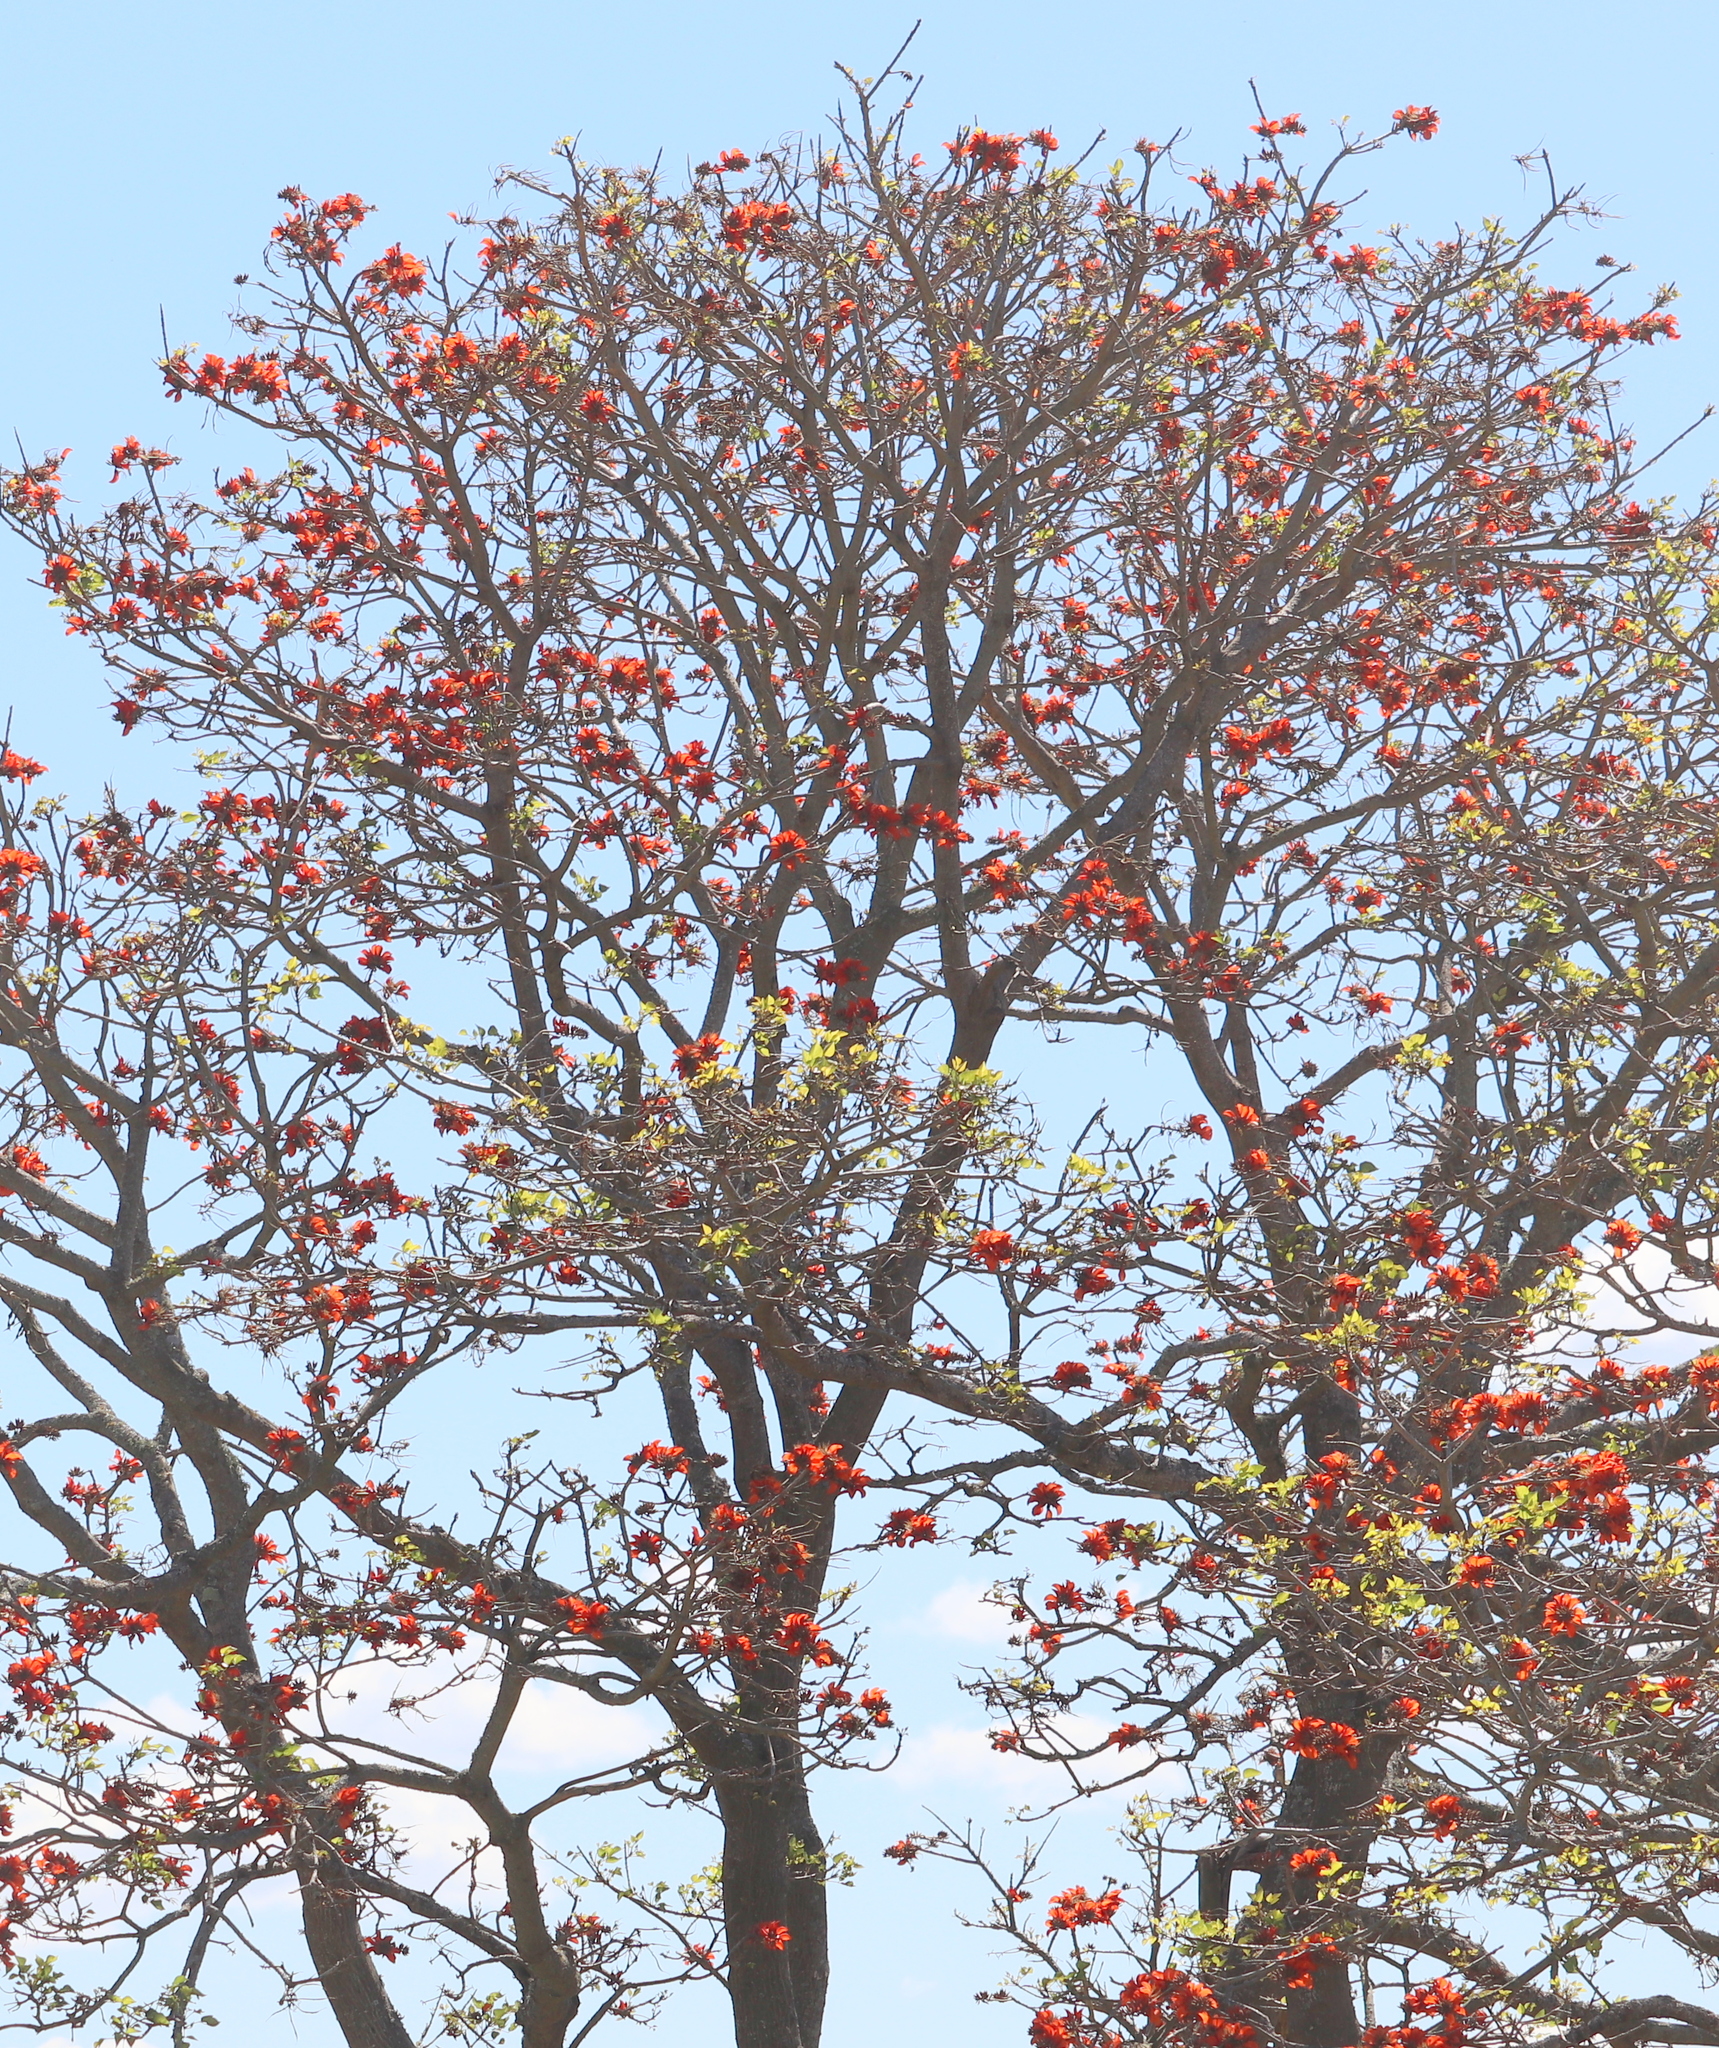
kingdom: Plantae
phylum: Tracheophyta
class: Magnoliopsida
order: Fabales
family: Fabaceae
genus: Erythrina
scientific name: Erythrina caffra
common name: Coast coral tree
